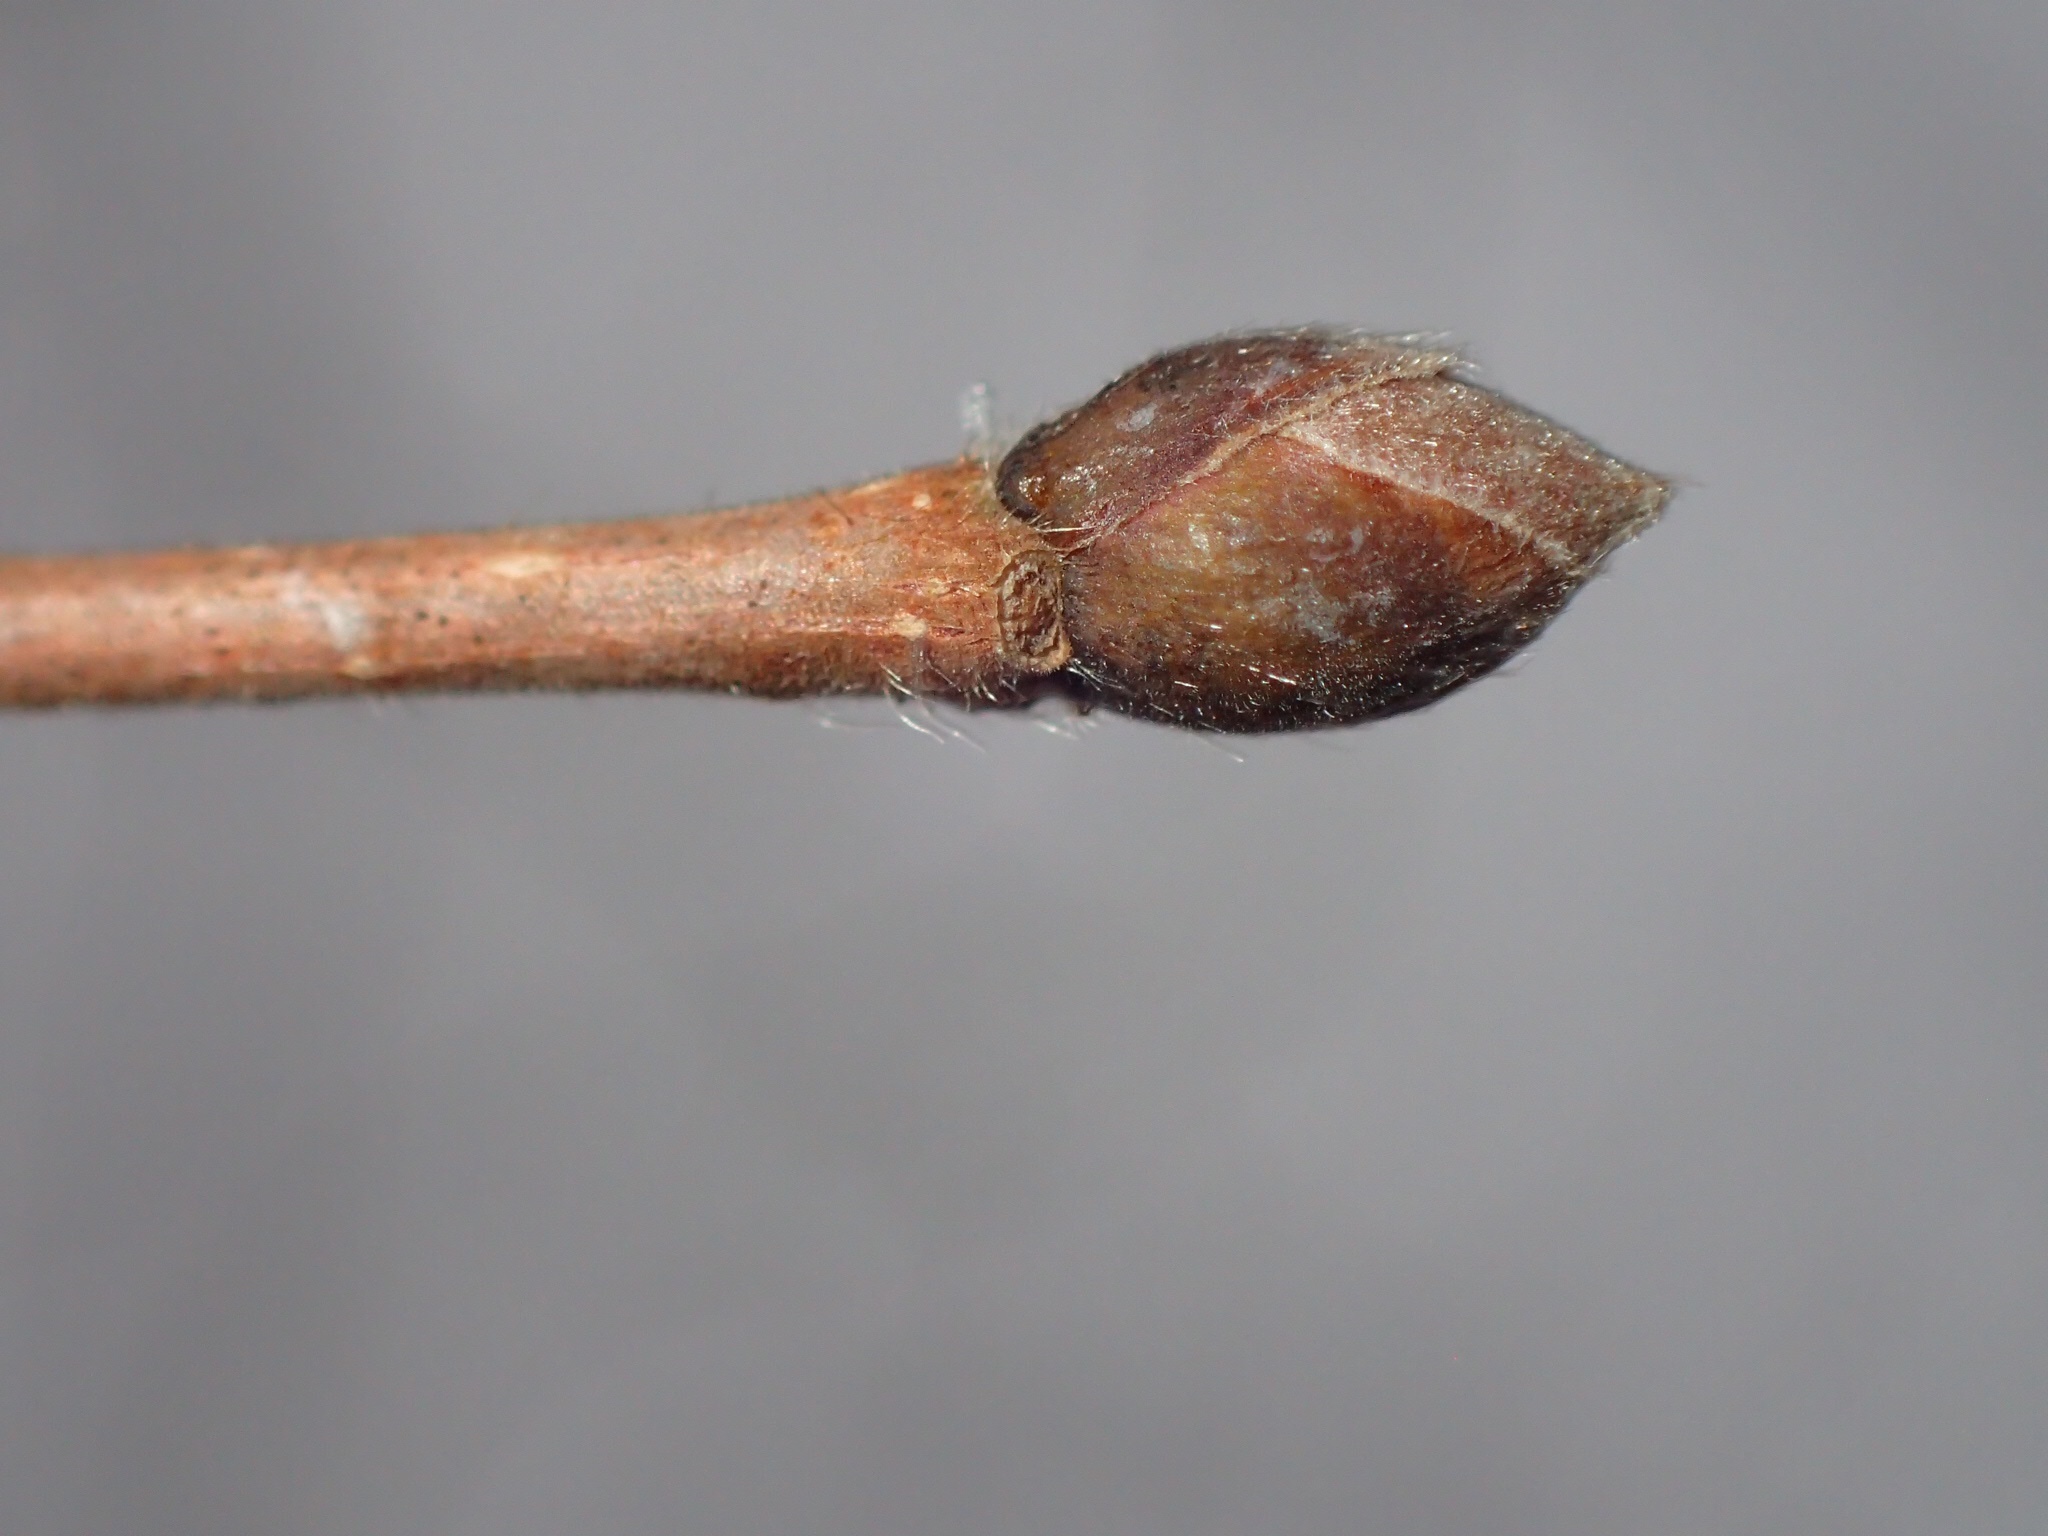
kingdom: Plantae
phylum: Tracheophyta
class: Magnoliopsida
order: Fagales
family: Betulaceae
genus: Corylus
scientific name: Corylus cornuta
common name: Beaked hazel
